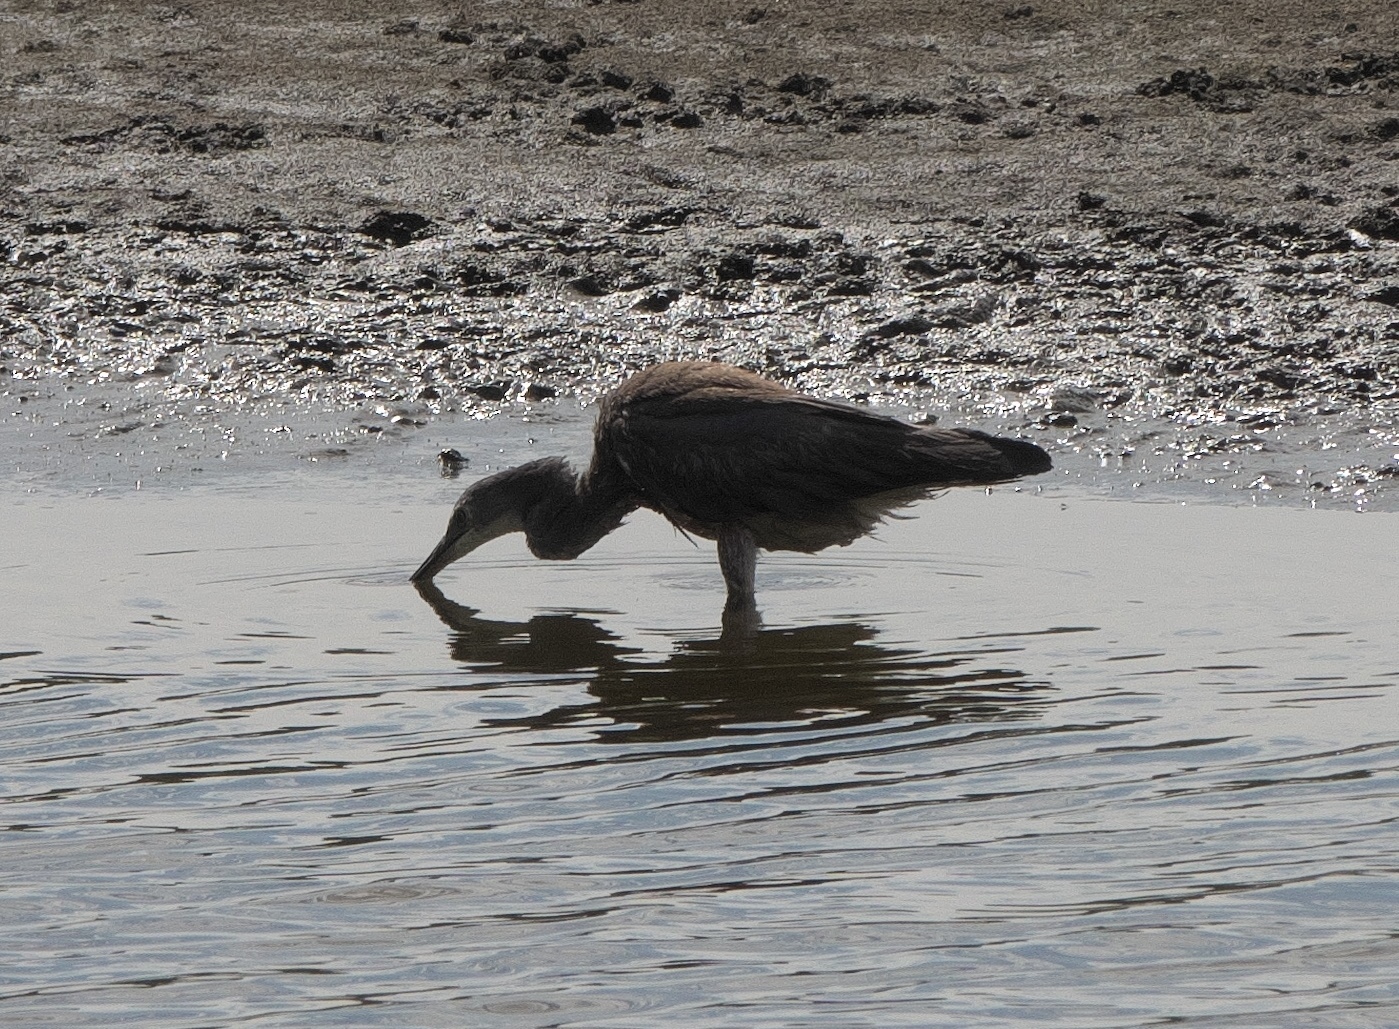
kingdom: Animalia
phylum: Chordata
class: Aves
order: Pelecaniformes
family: Ardeidae
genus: Egretta
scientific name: Egretta novaehollandiae
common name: White-faced heron
